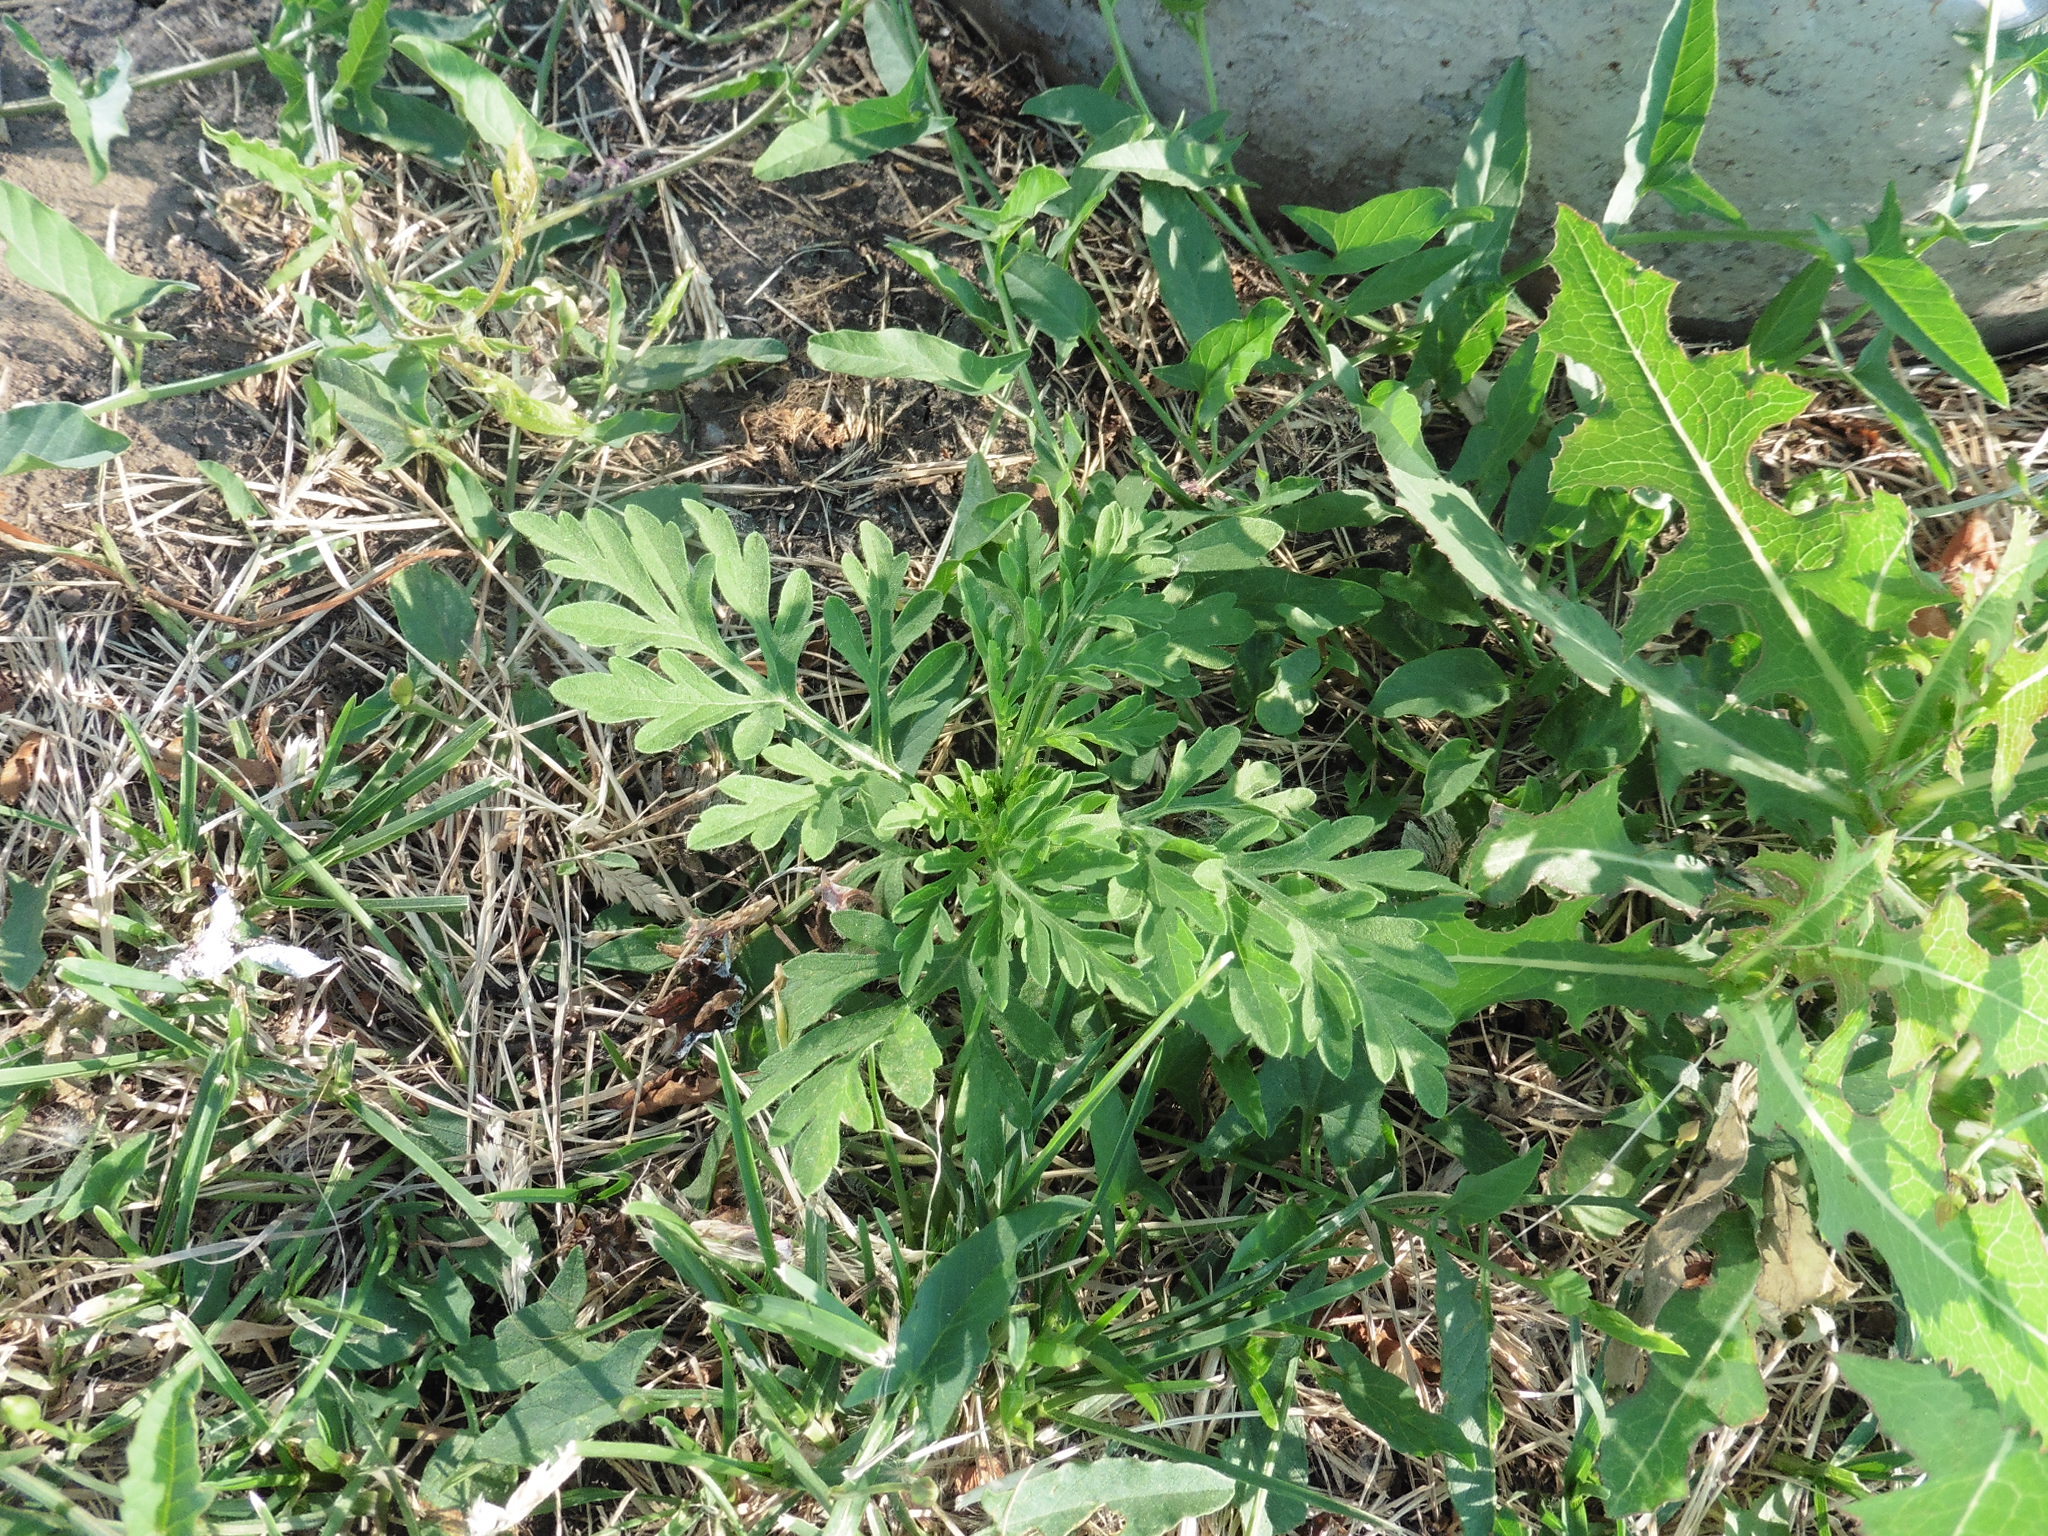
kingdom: Plantae
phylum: Tracheophyta
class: Magnoliopsida
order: Asterales
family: Asteraceae
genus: Ambrosia
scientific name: Ambrosia artemisiifolia
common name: Annual ragweed
